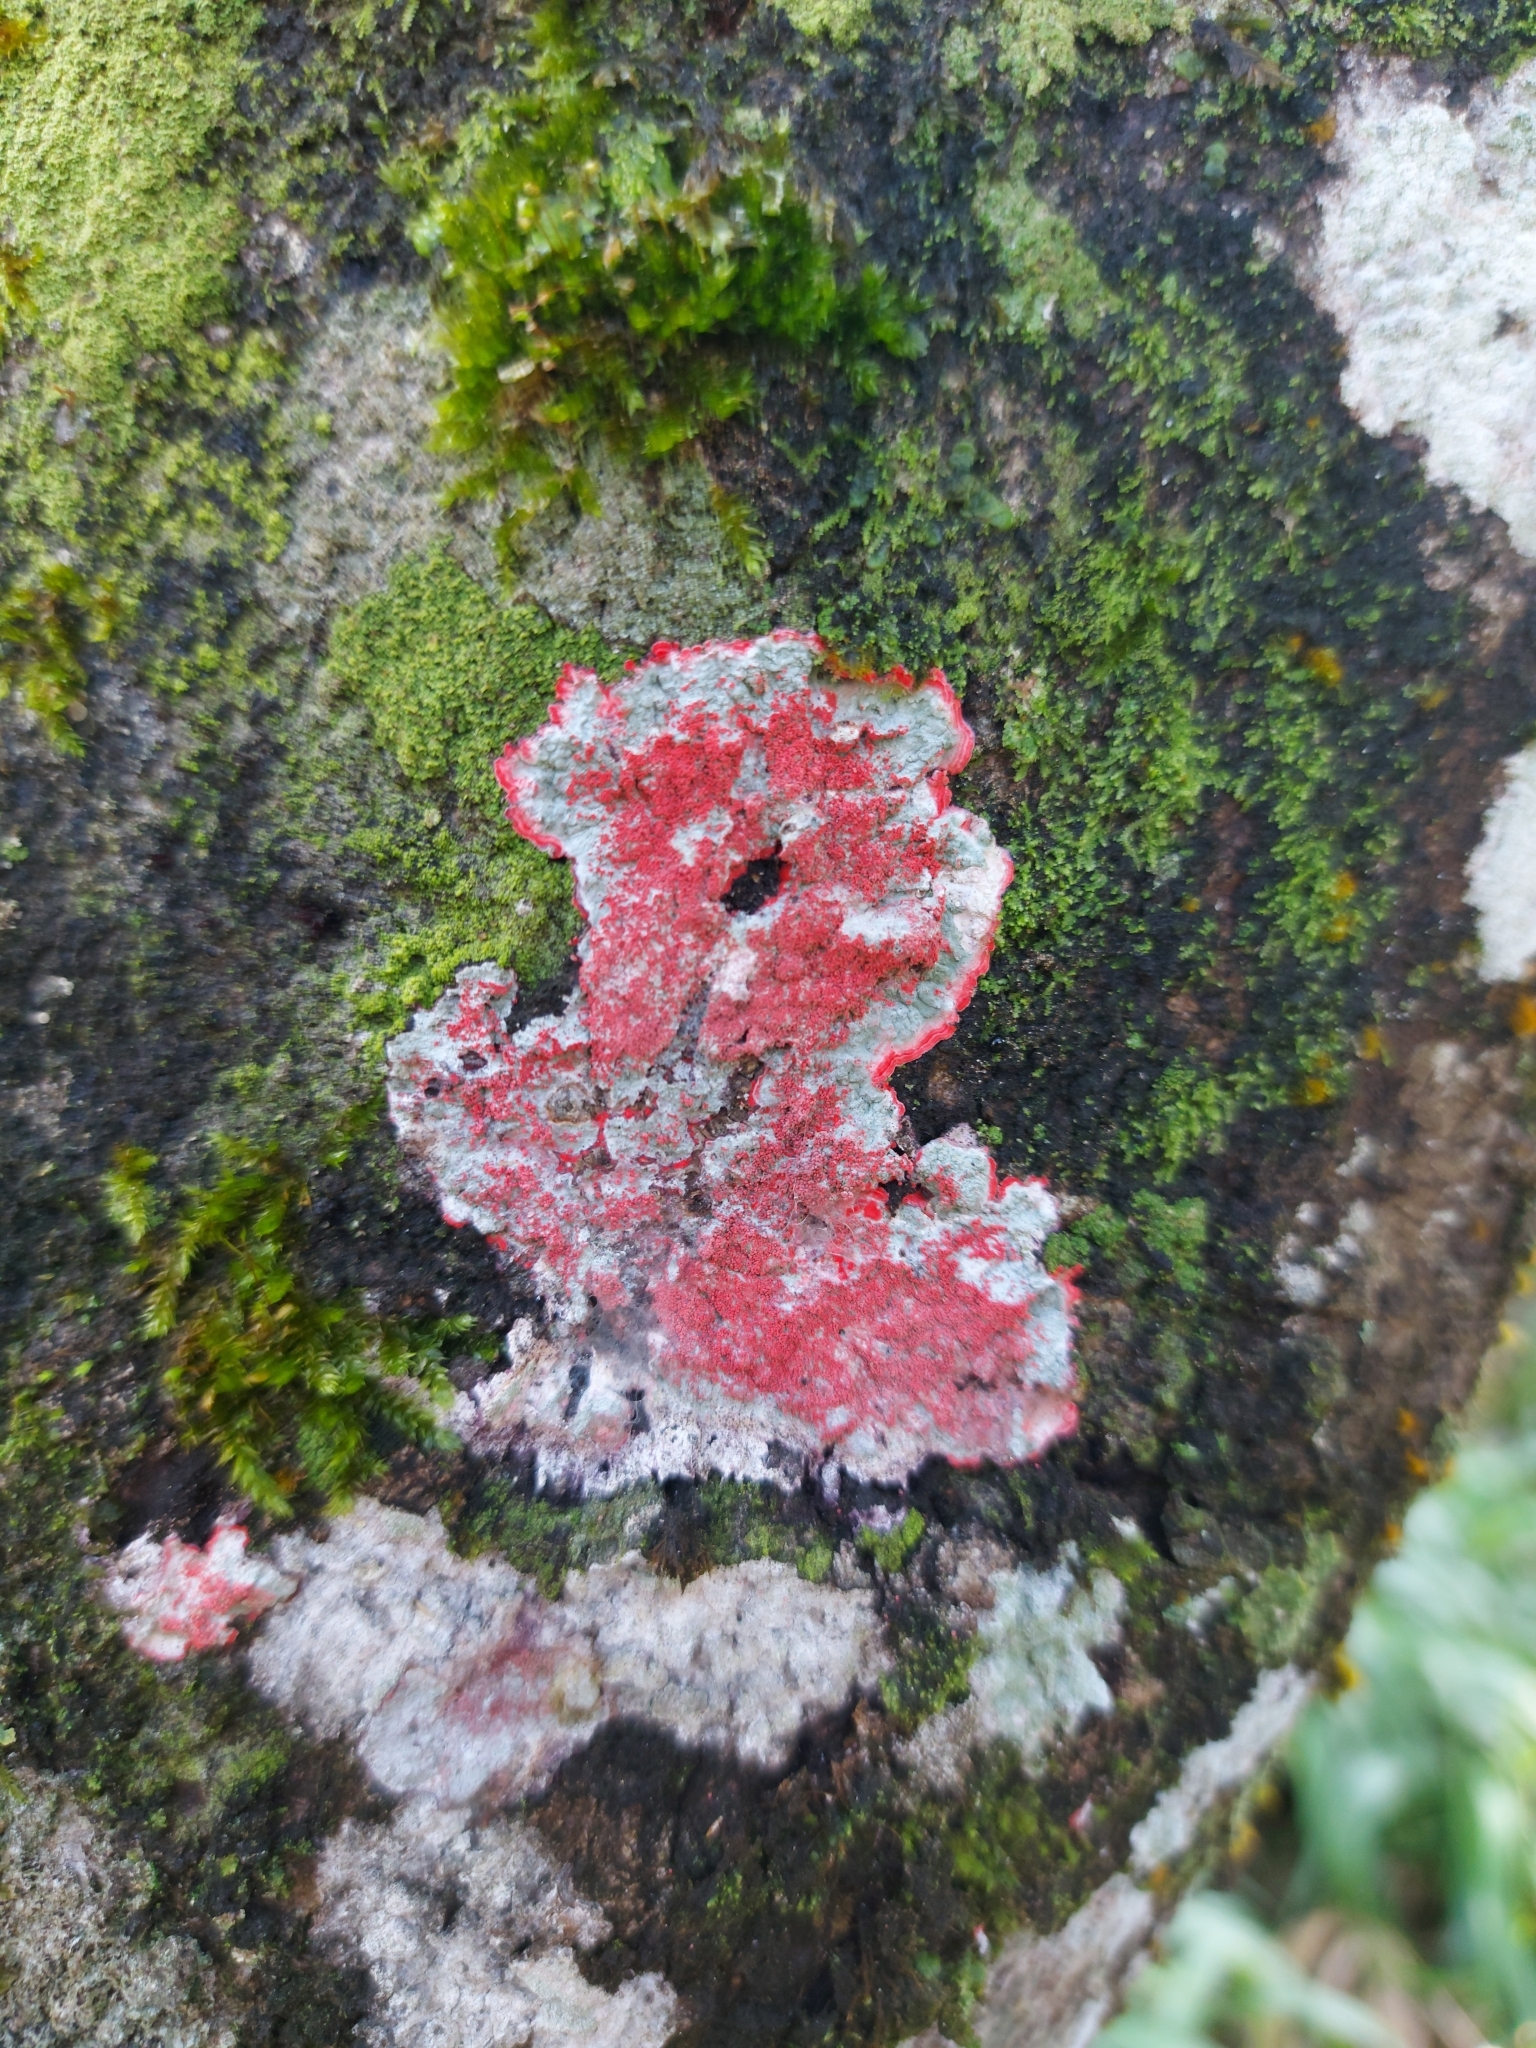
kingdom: Fungi
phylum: Ascomycota
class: Arthoniomycetes
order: Arthoniales
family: Arthoniaceae
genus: Herpothallon
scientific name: Herpothallon rubrocinctum
